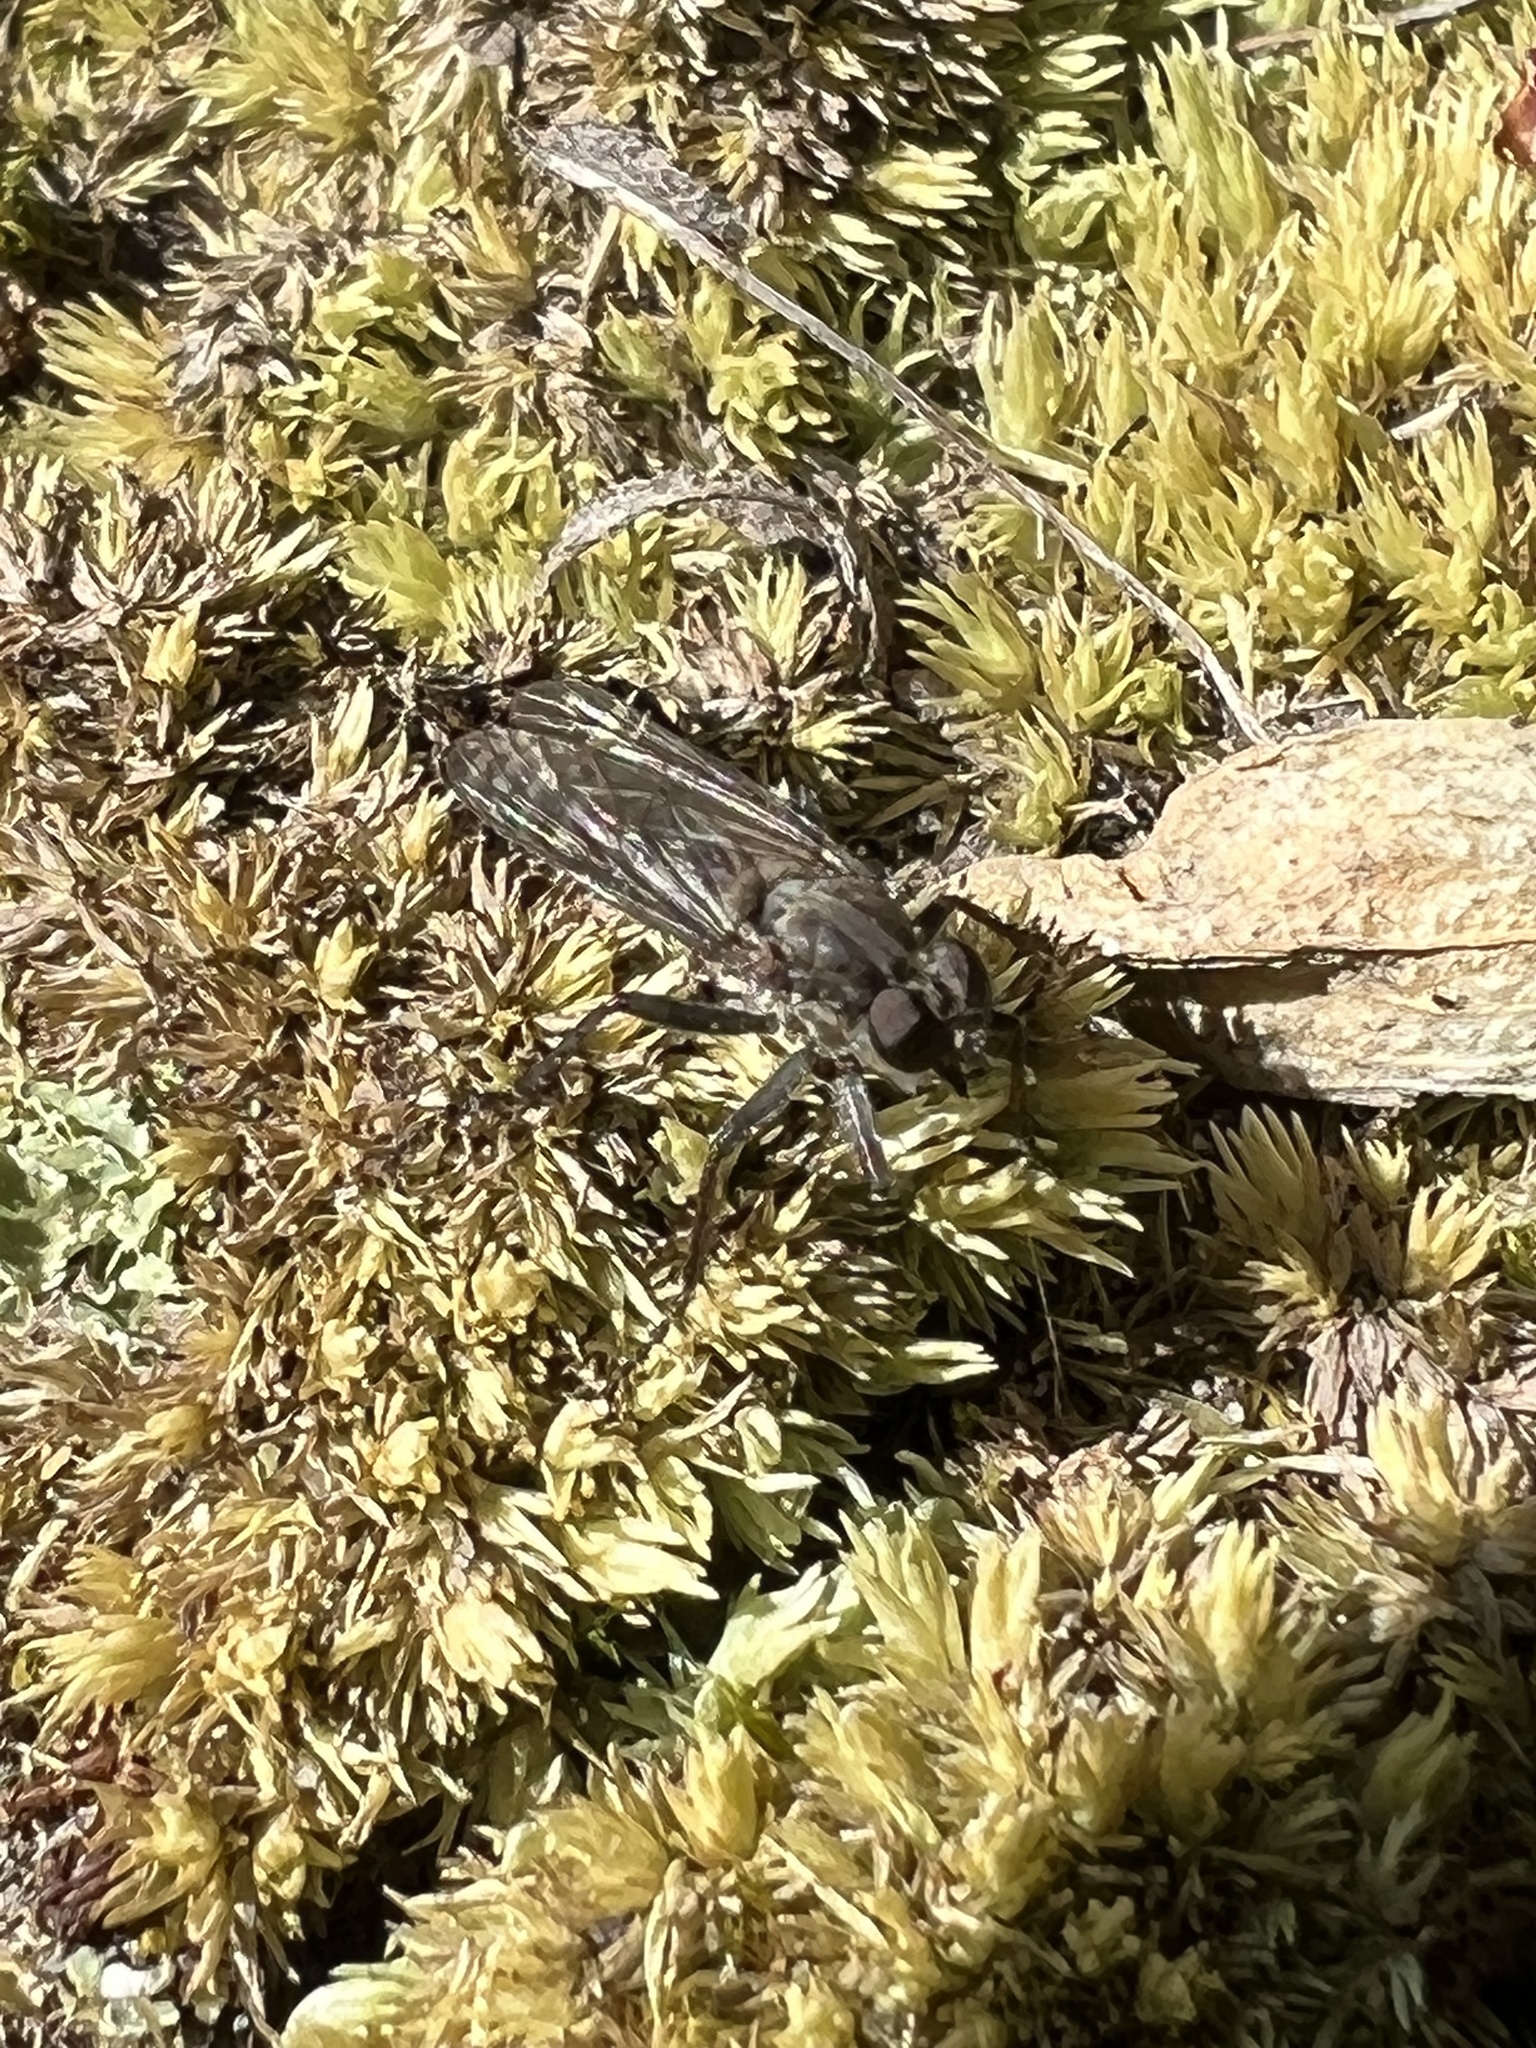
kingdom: Animalia
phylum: Arthropoda
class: Insecta
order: Diptera
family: Asilidae
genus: Lasiopogon
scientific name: Lasiopogon currani
